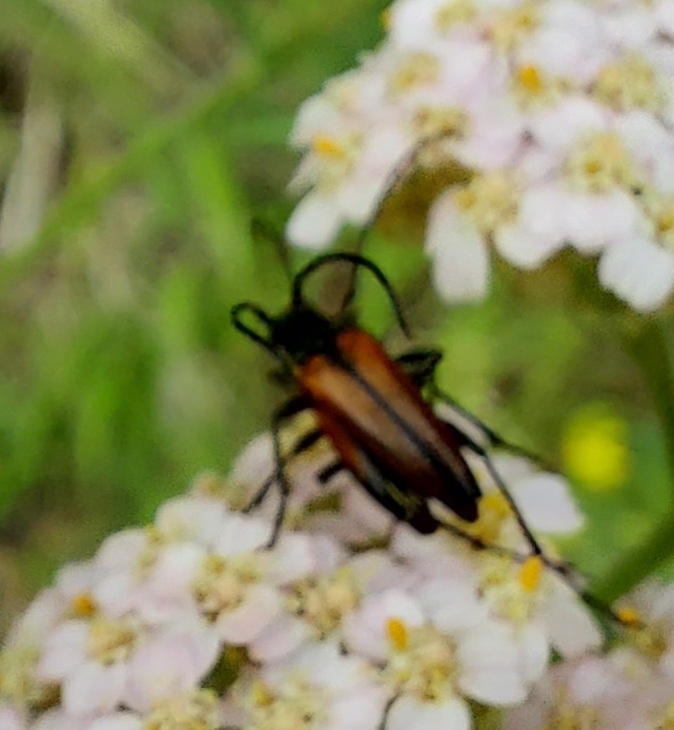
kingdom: Animalia
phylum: Arthropoda
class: Insecta
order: Coleoptera
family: Cerambycidae
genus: Stenurella
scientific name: Stenurella melanura
